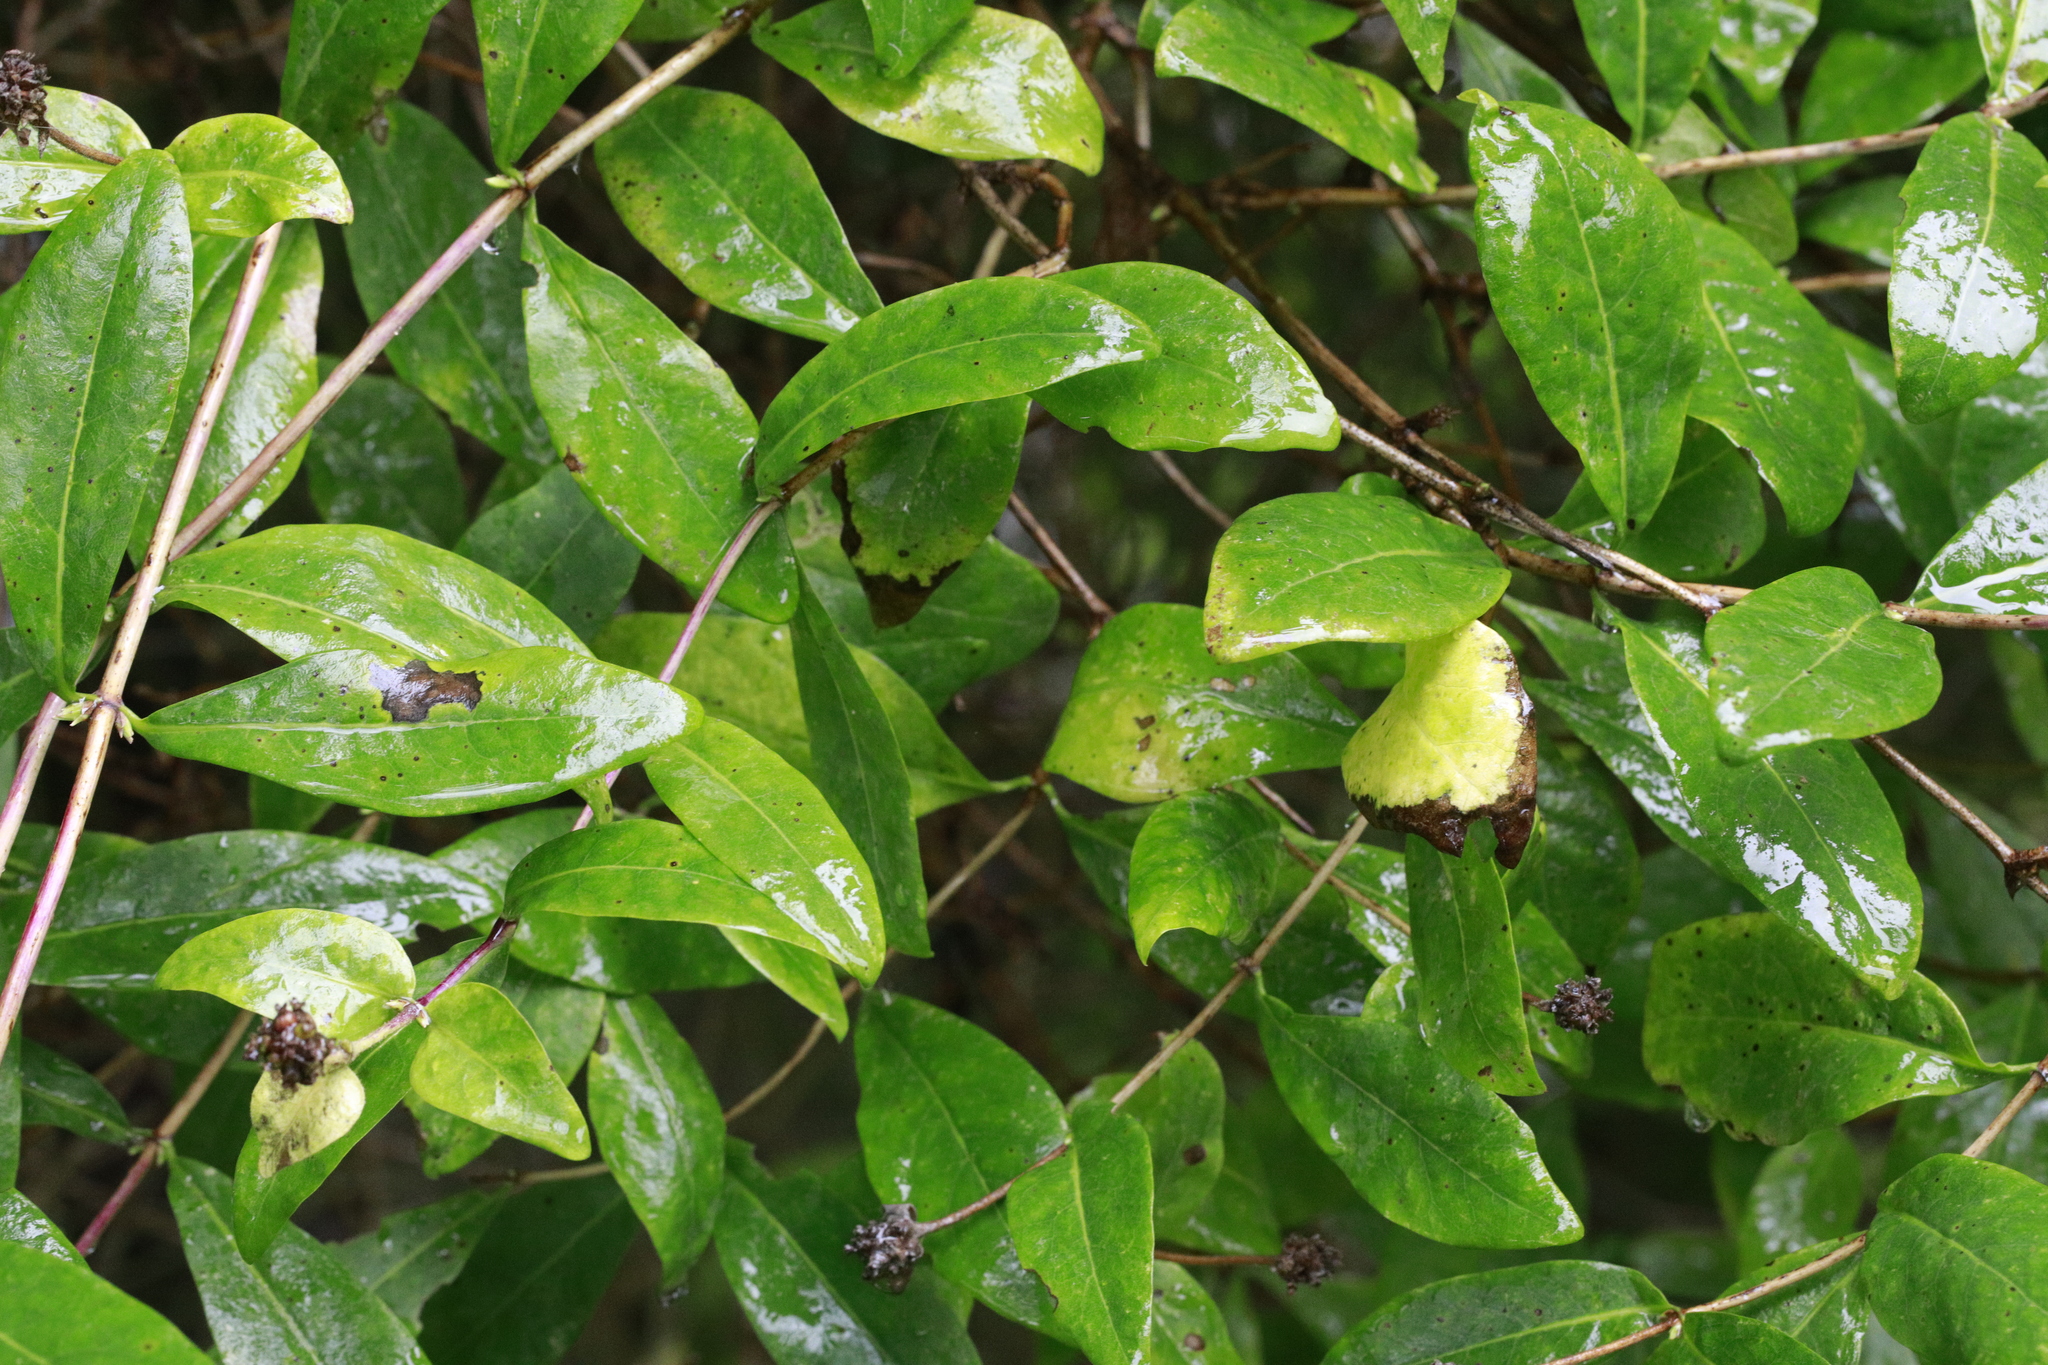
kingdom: Plantae
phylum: Tracheophyta
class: Magnoliopsida
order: Dipsacales
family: Caprifoliaceae
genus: Lonicera
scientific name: Lonicera periclymenum
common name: European honeysuckle
